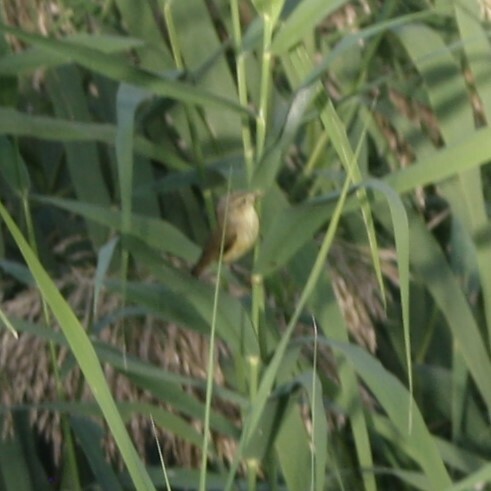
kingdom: Animalia
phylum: Chordata
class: Aves
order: Passeriformes
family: Phylloscopidae
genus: Phylloscopus
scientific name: Phylloscopus trochilus
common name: Willow warbler
